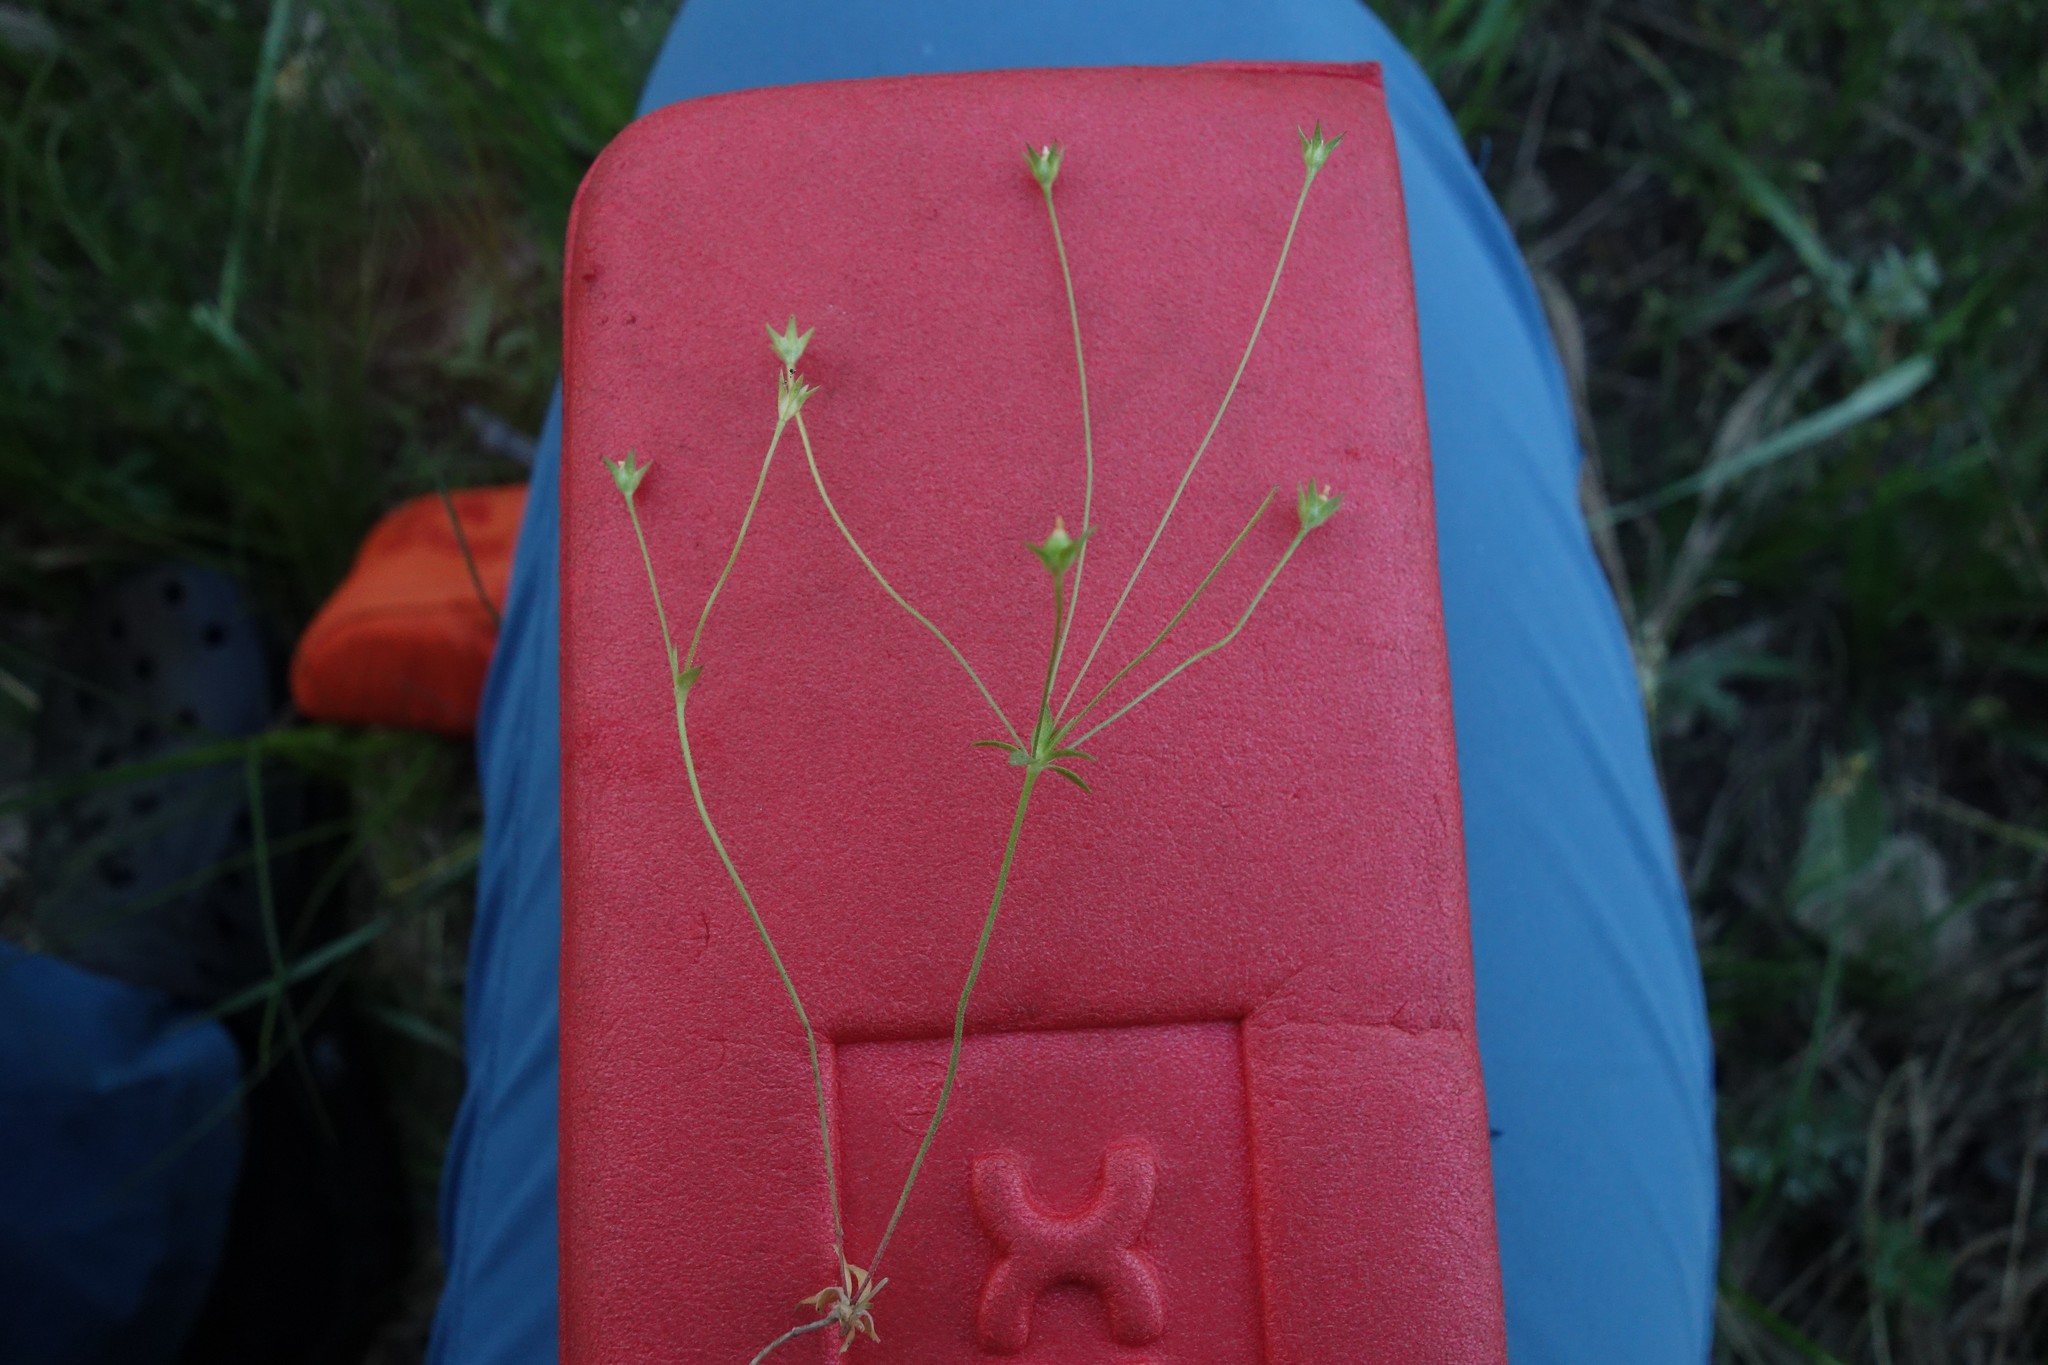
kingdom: Plantae
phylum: Tracheophyta
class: Magnoliopsida
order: Ericales
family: Primulaceae
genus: Androsace
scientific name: Androsace elongata
